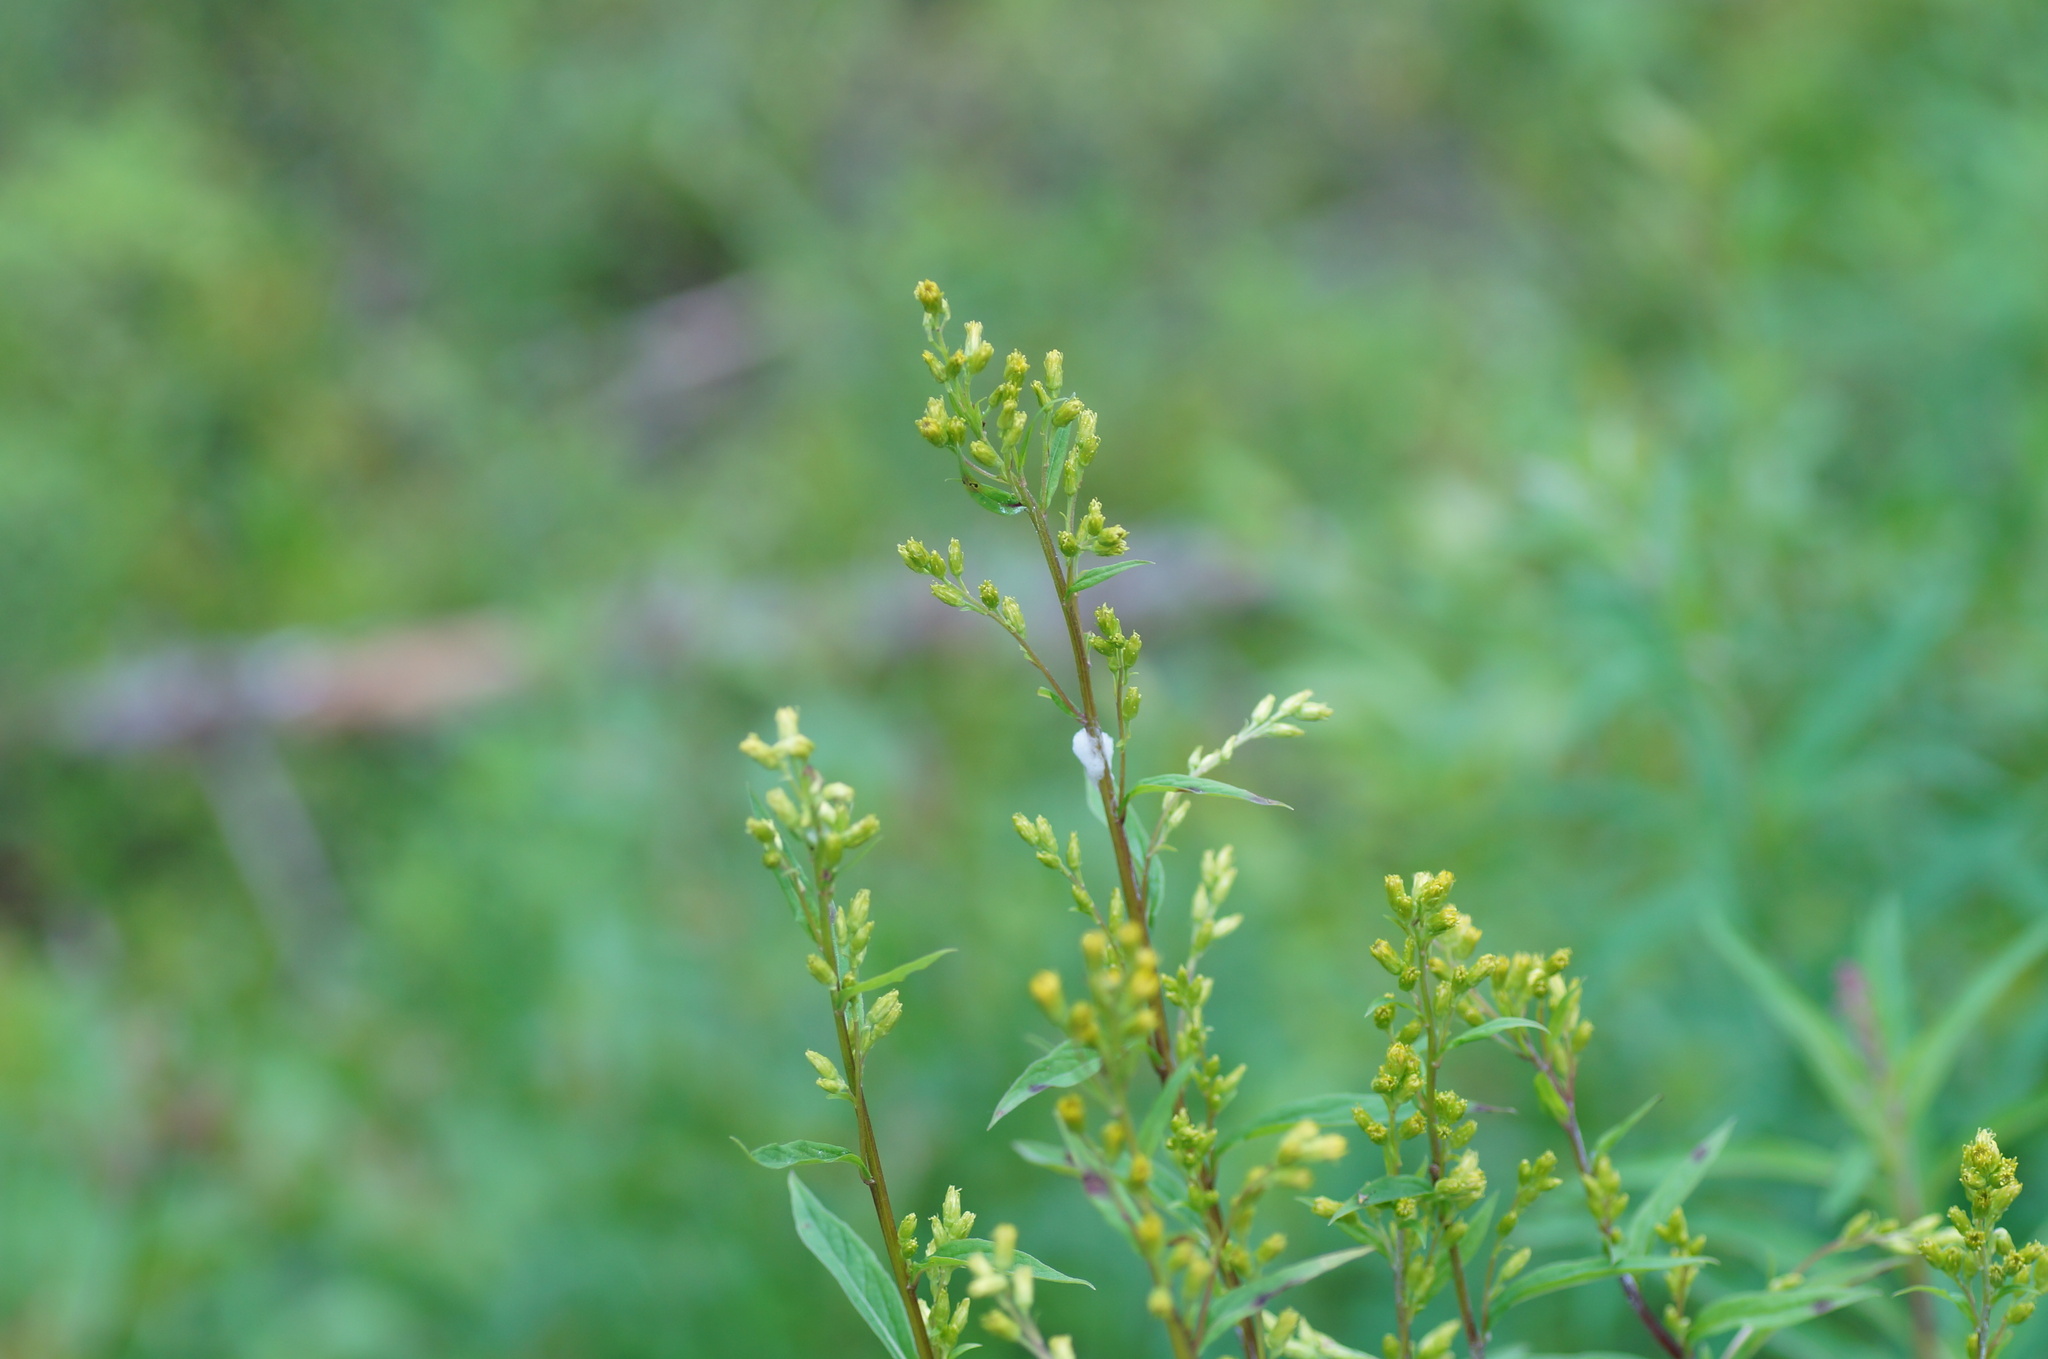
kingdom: Plantae
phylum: Tracheophyta
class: Magnoliopsida
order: Asterales
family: Asteraceae
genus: Solidago
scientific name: Solidago virgaurea
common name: Goldenrod
